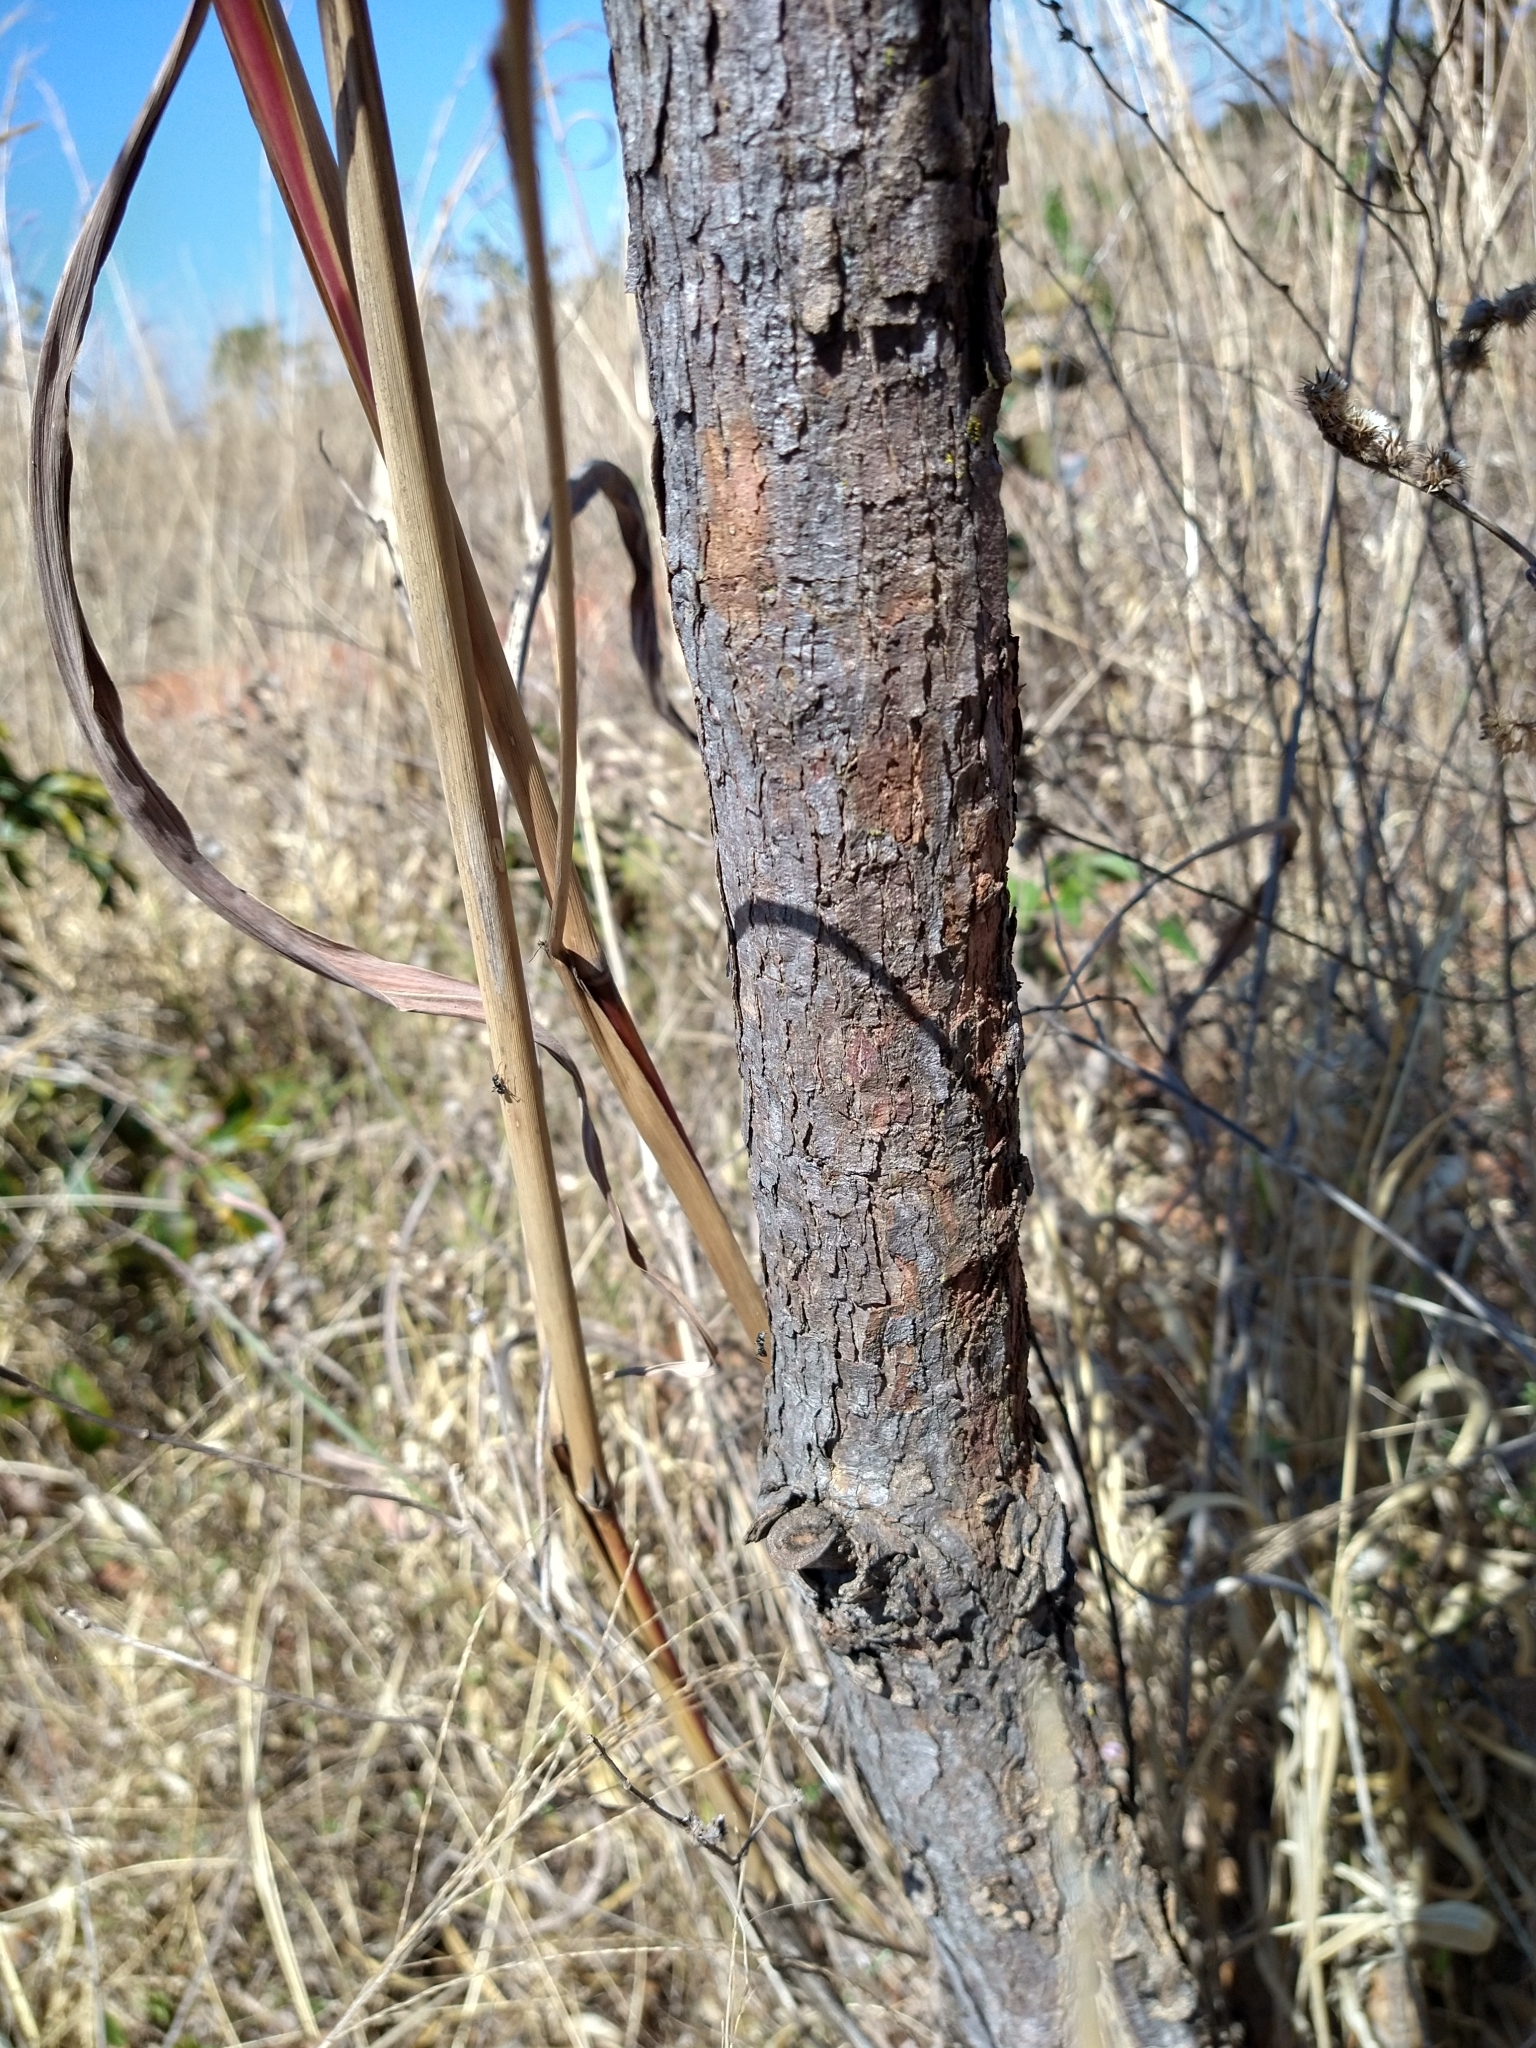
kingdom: Plantae
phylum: Tracheophyta
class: Magnoliopsida
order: Fabales
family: Fabaceae
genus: Andira
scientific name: Andira vermifuga
